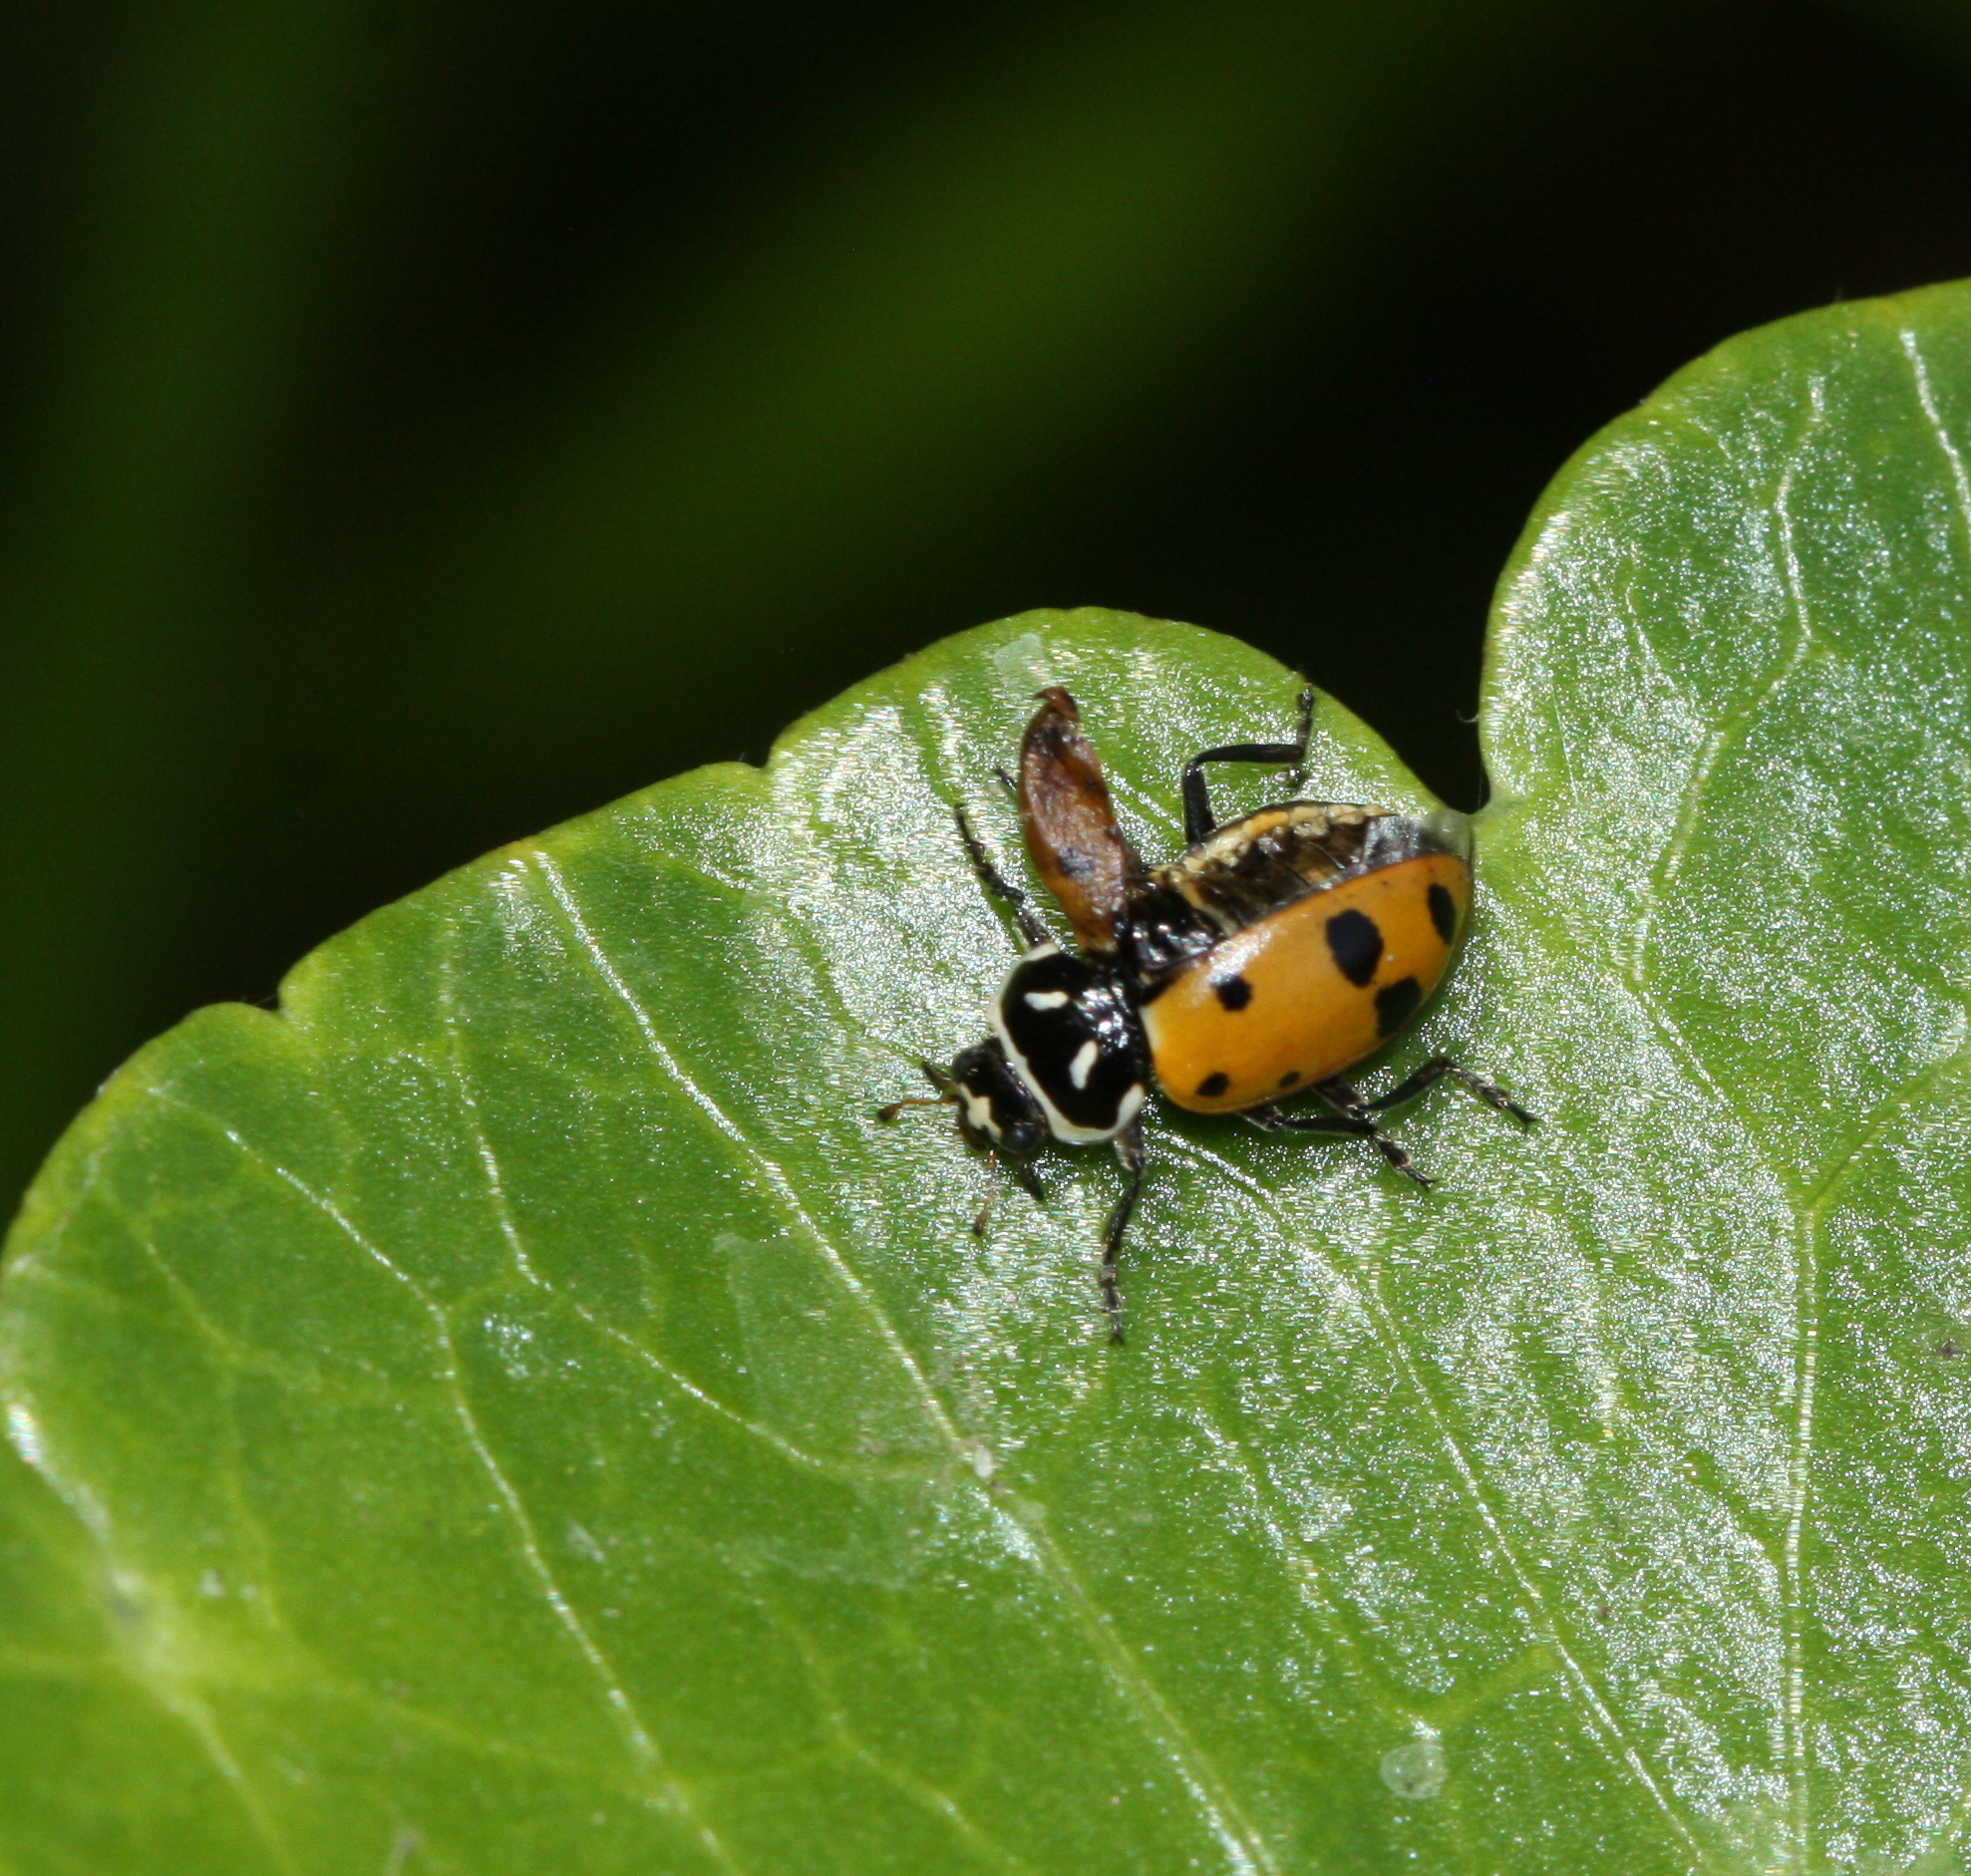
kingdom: Animalia
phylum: Arthropoda
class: Insecta
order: Coleoptera
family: Coccinellidae
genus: Hippodamia
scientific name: Hippodamia convergens
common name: Convergent lady beetle
